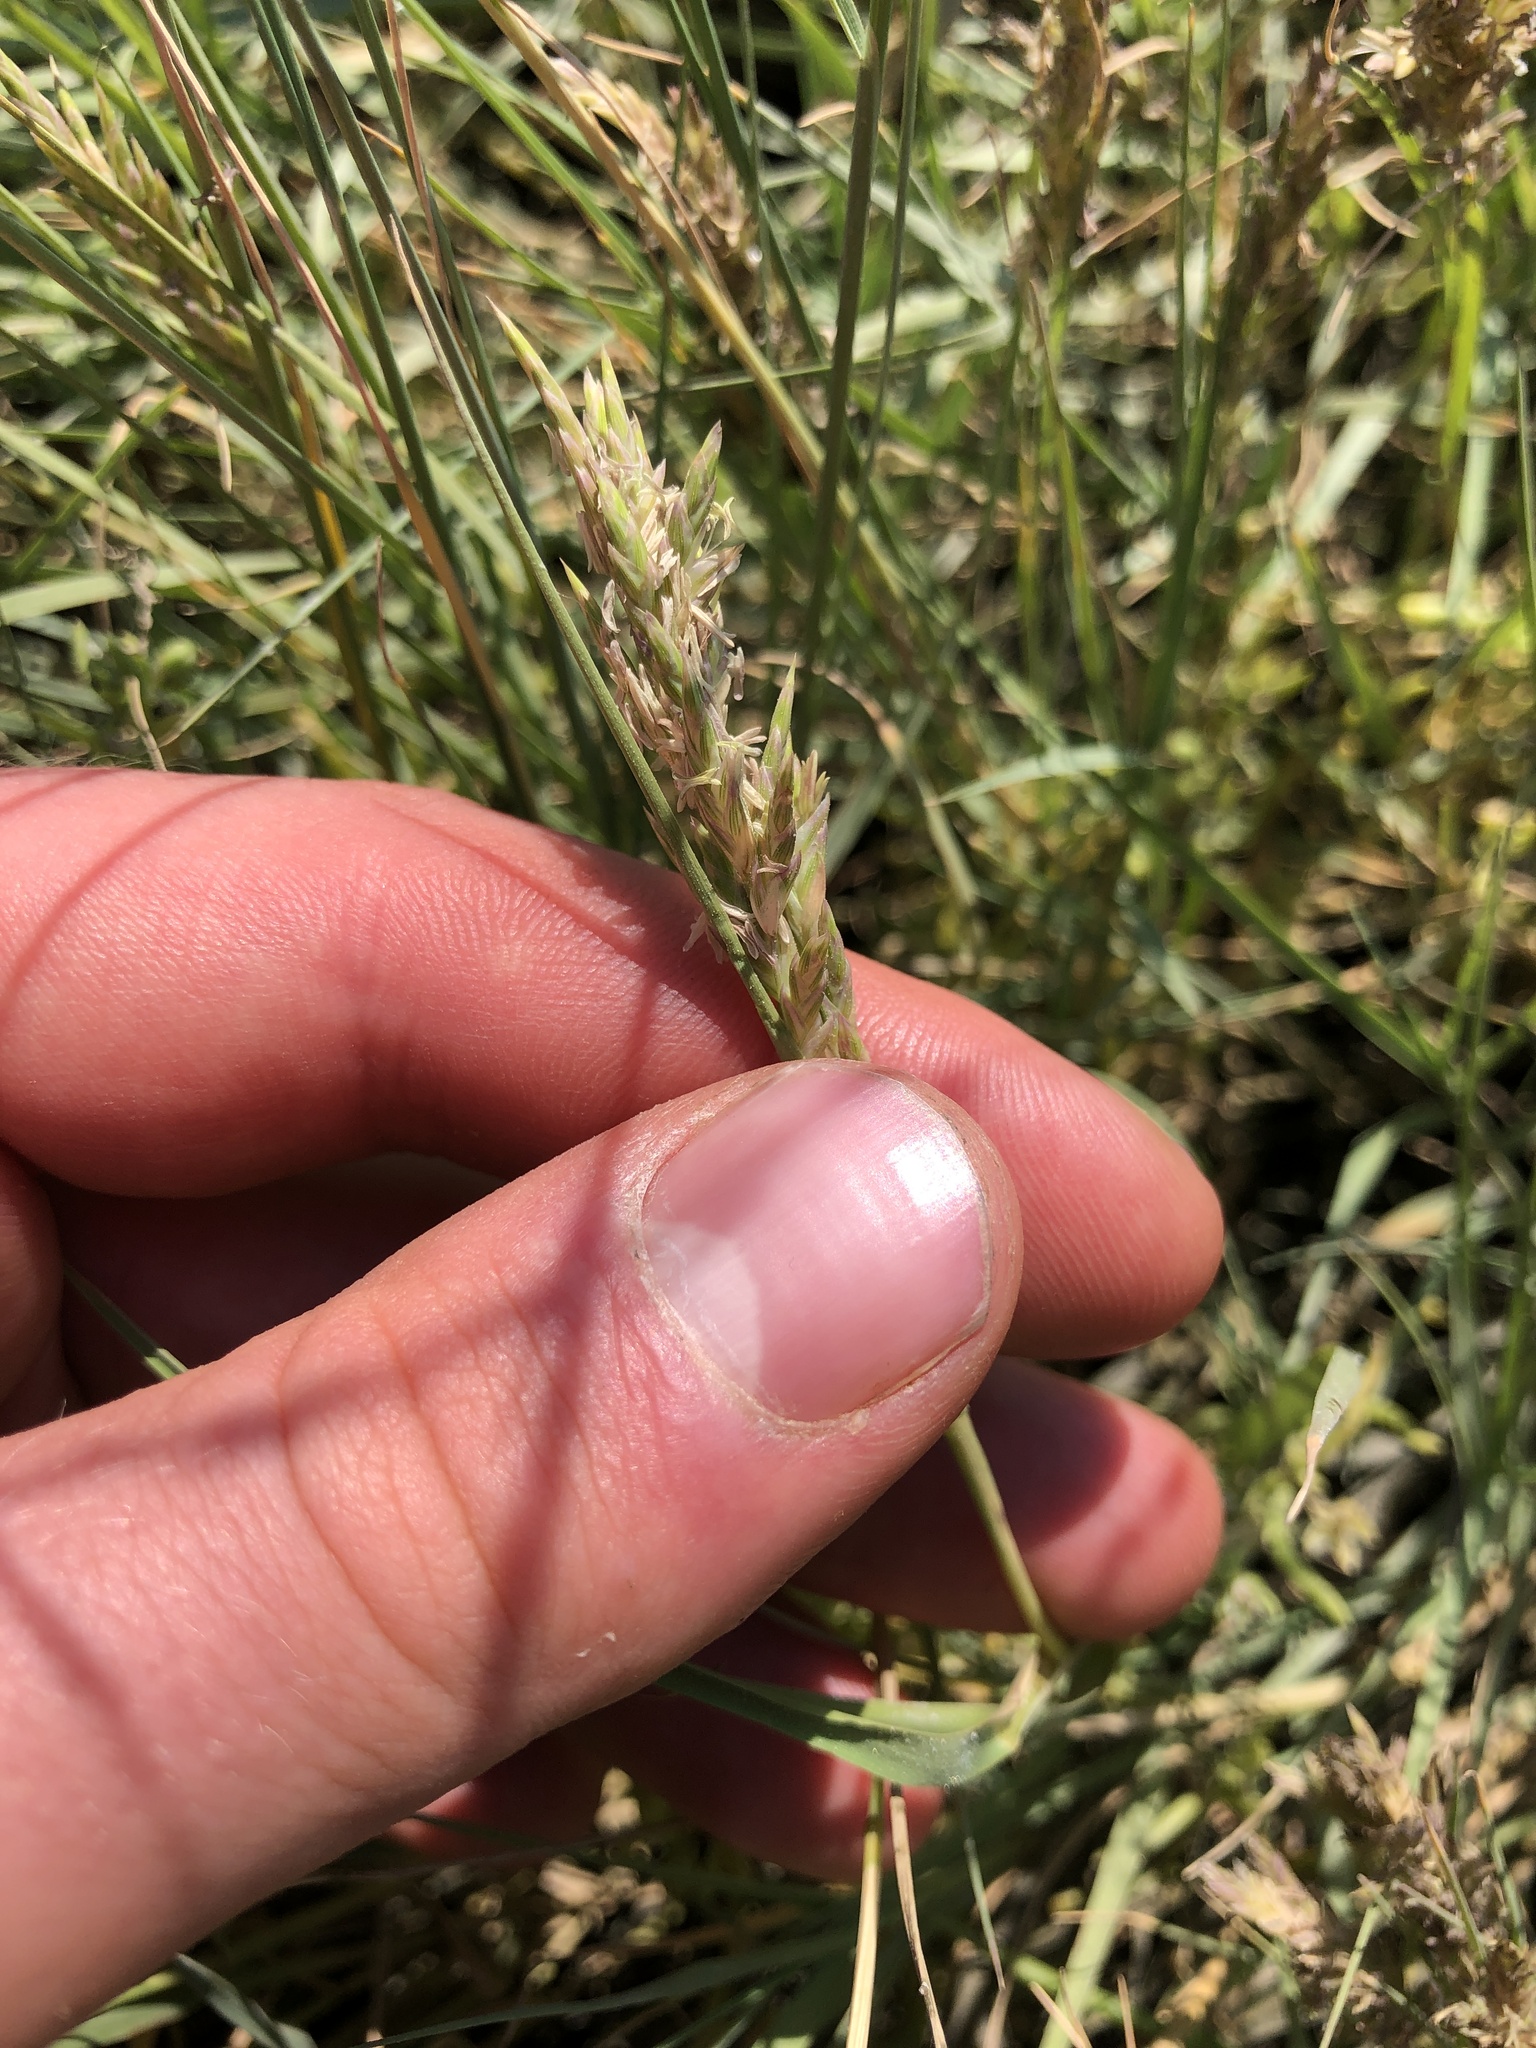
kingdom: Plantae
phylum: Tracheophyta
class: Liliopsida
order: Poales
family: Poaceae
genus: Distichlis
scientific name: Distichlis spicata
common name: Saltgrass
